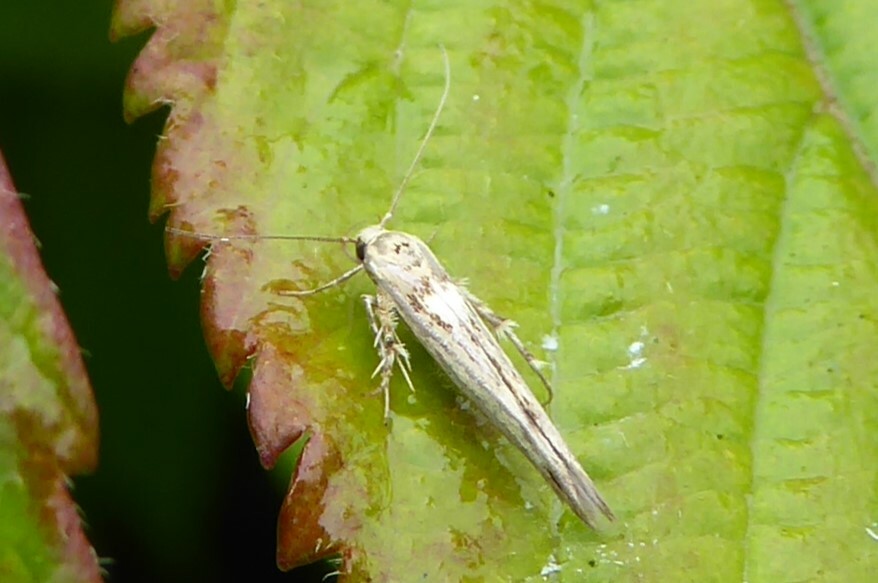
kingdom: Animalia
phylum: Arthropoda
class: Insecta
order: Lepidoptera
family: Stathmopodidae
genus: Stathmopoda
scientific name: Stathmopoda plumbiflua
